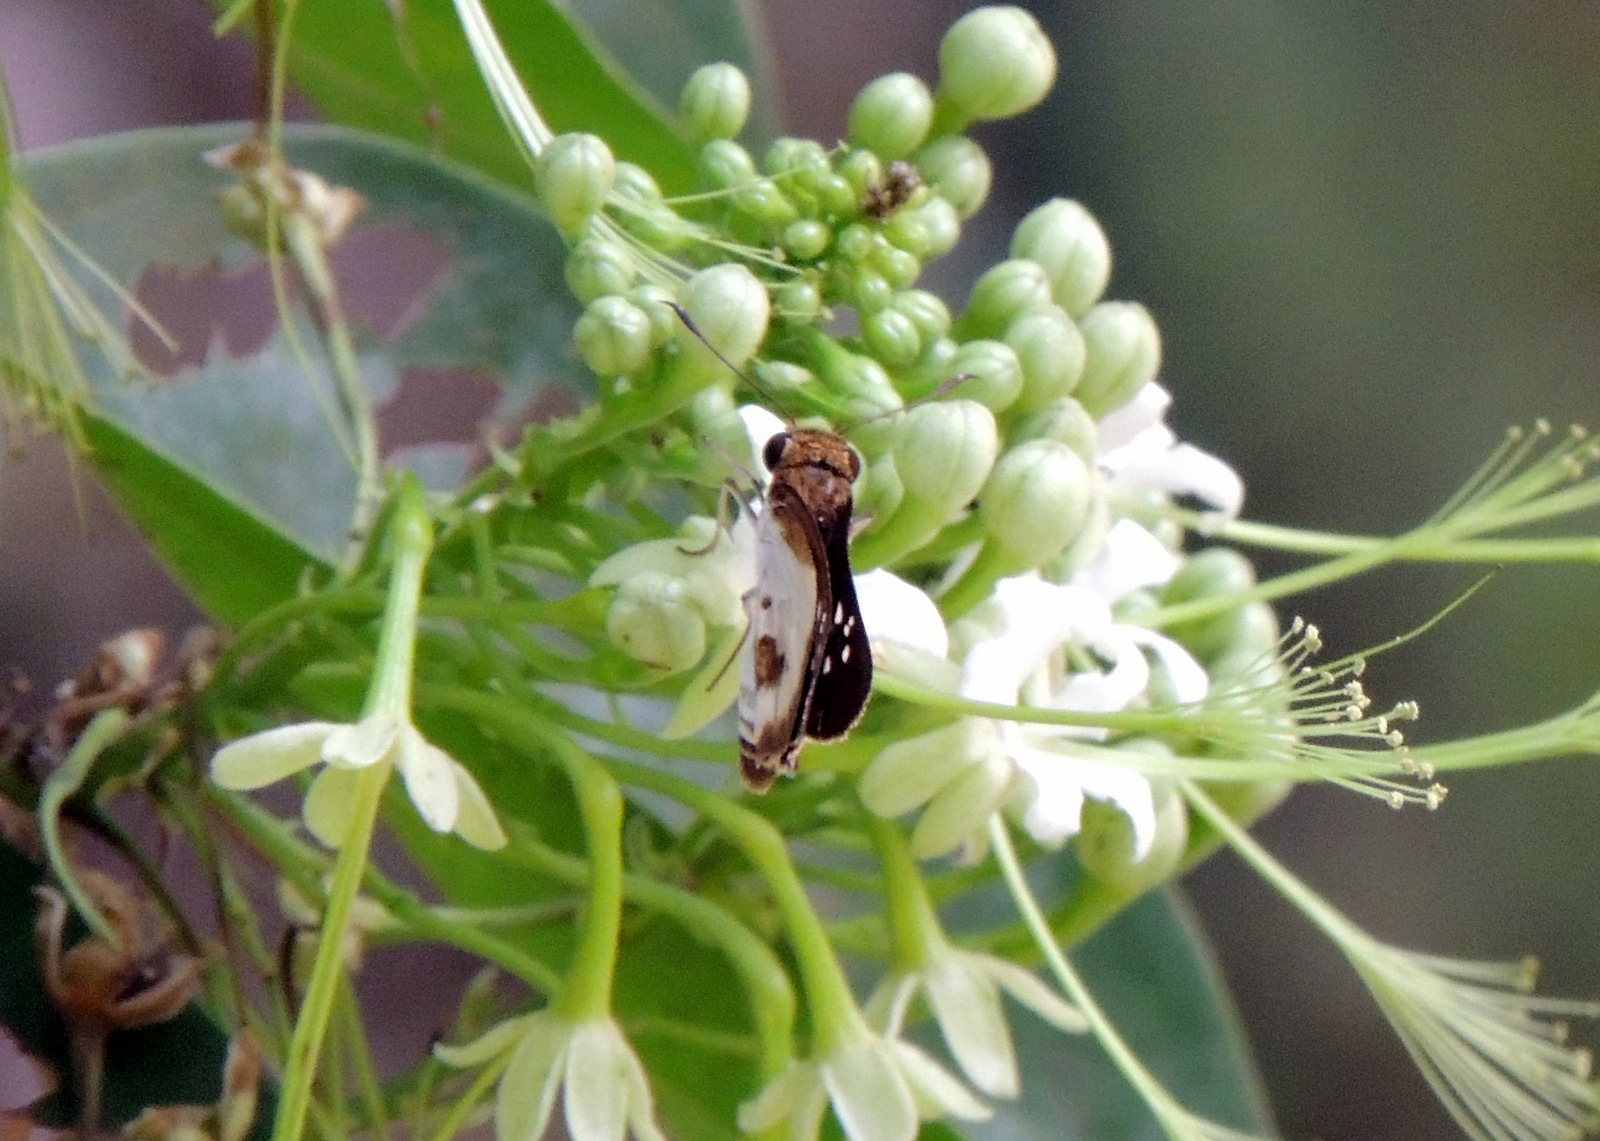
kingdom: Animalia
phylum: Arthropoda
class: Insecta
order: Lepidoptera
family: Hesperiidae
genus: Andronymus
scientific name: Andronymus caesar
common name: Common dart
